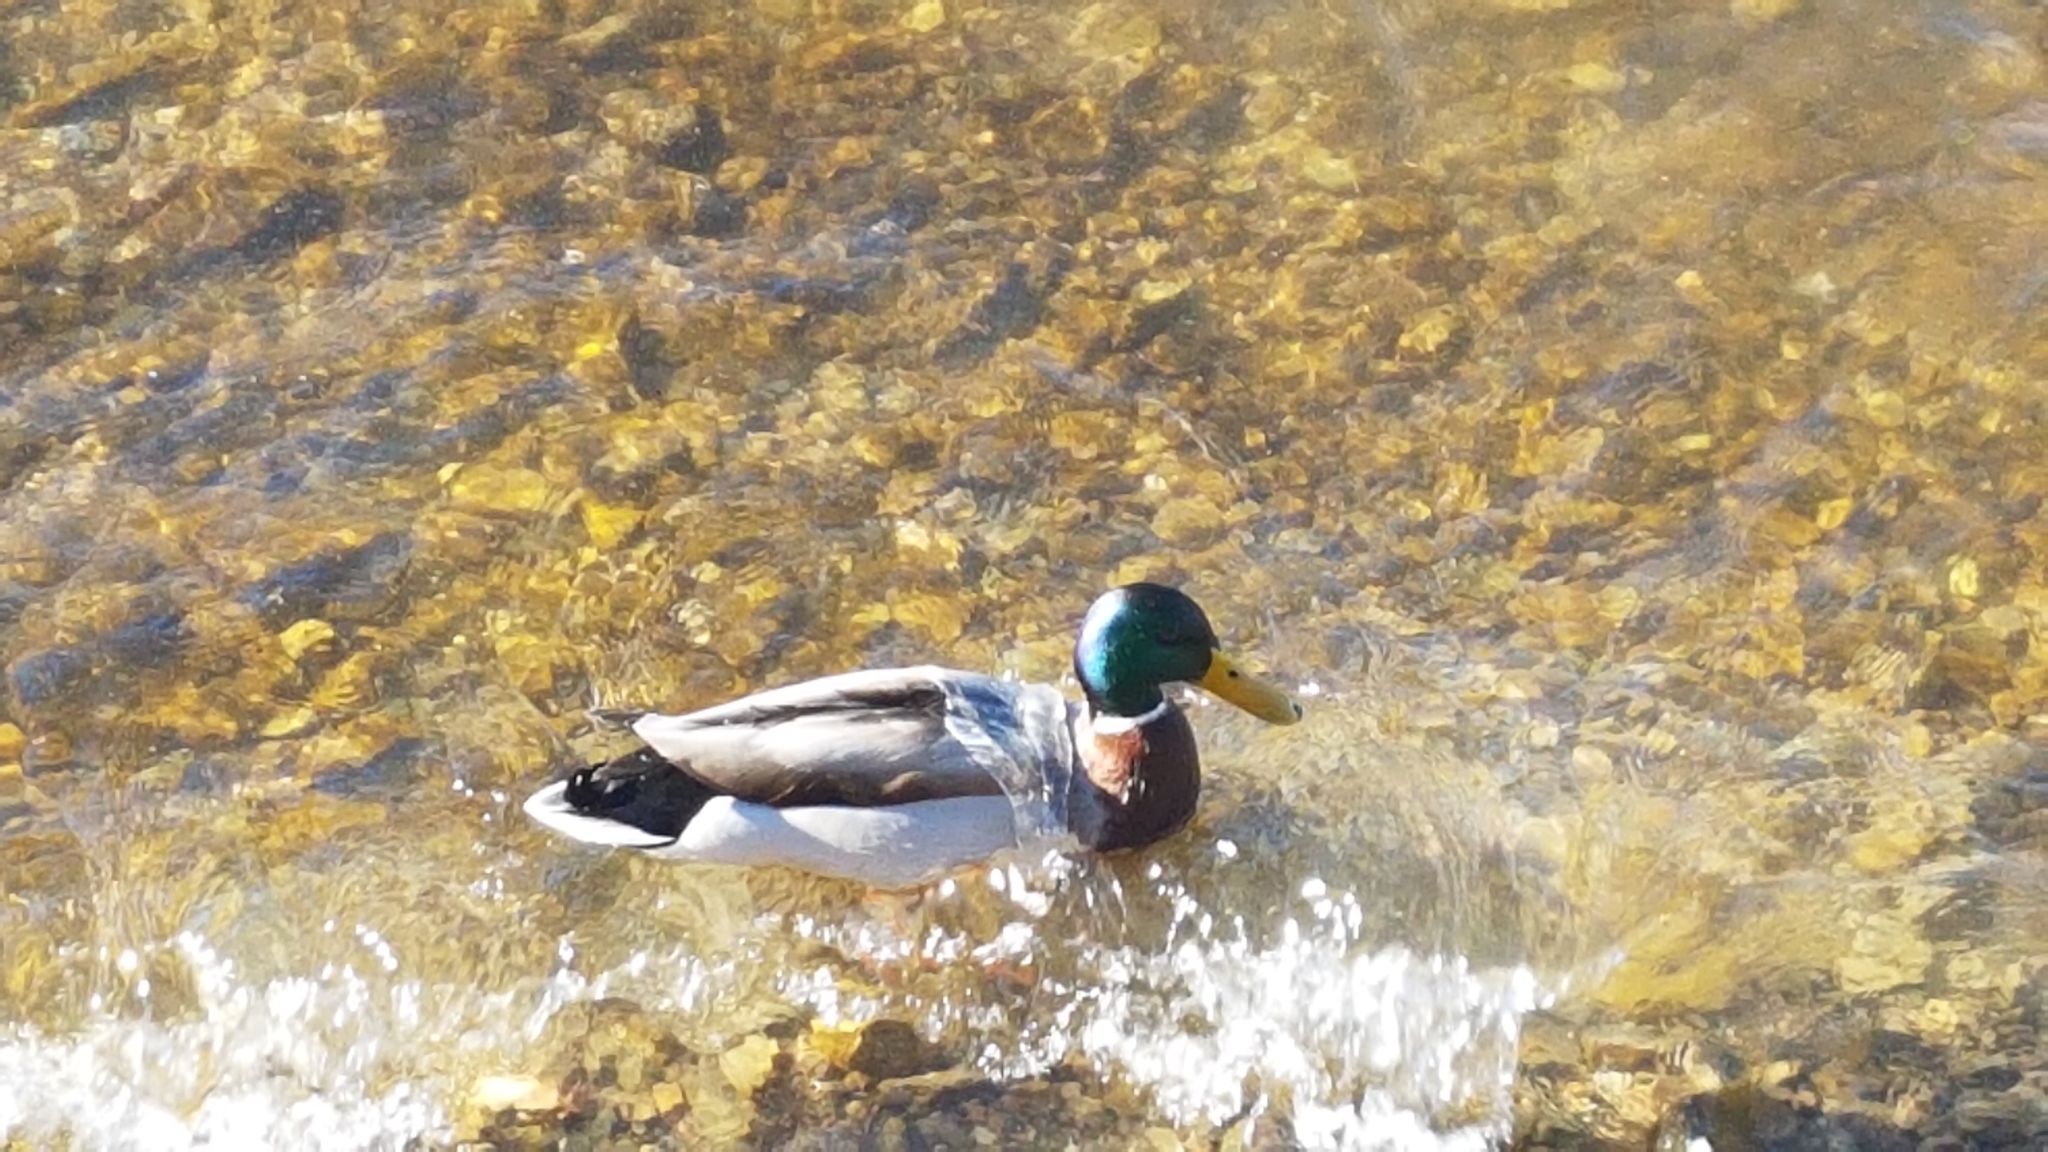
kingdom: Animalia
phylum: Chordata
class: Aves
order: Anseriformes
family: Anatidae
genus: Anas
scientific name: Anas platyrhynchos
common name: Mallard
